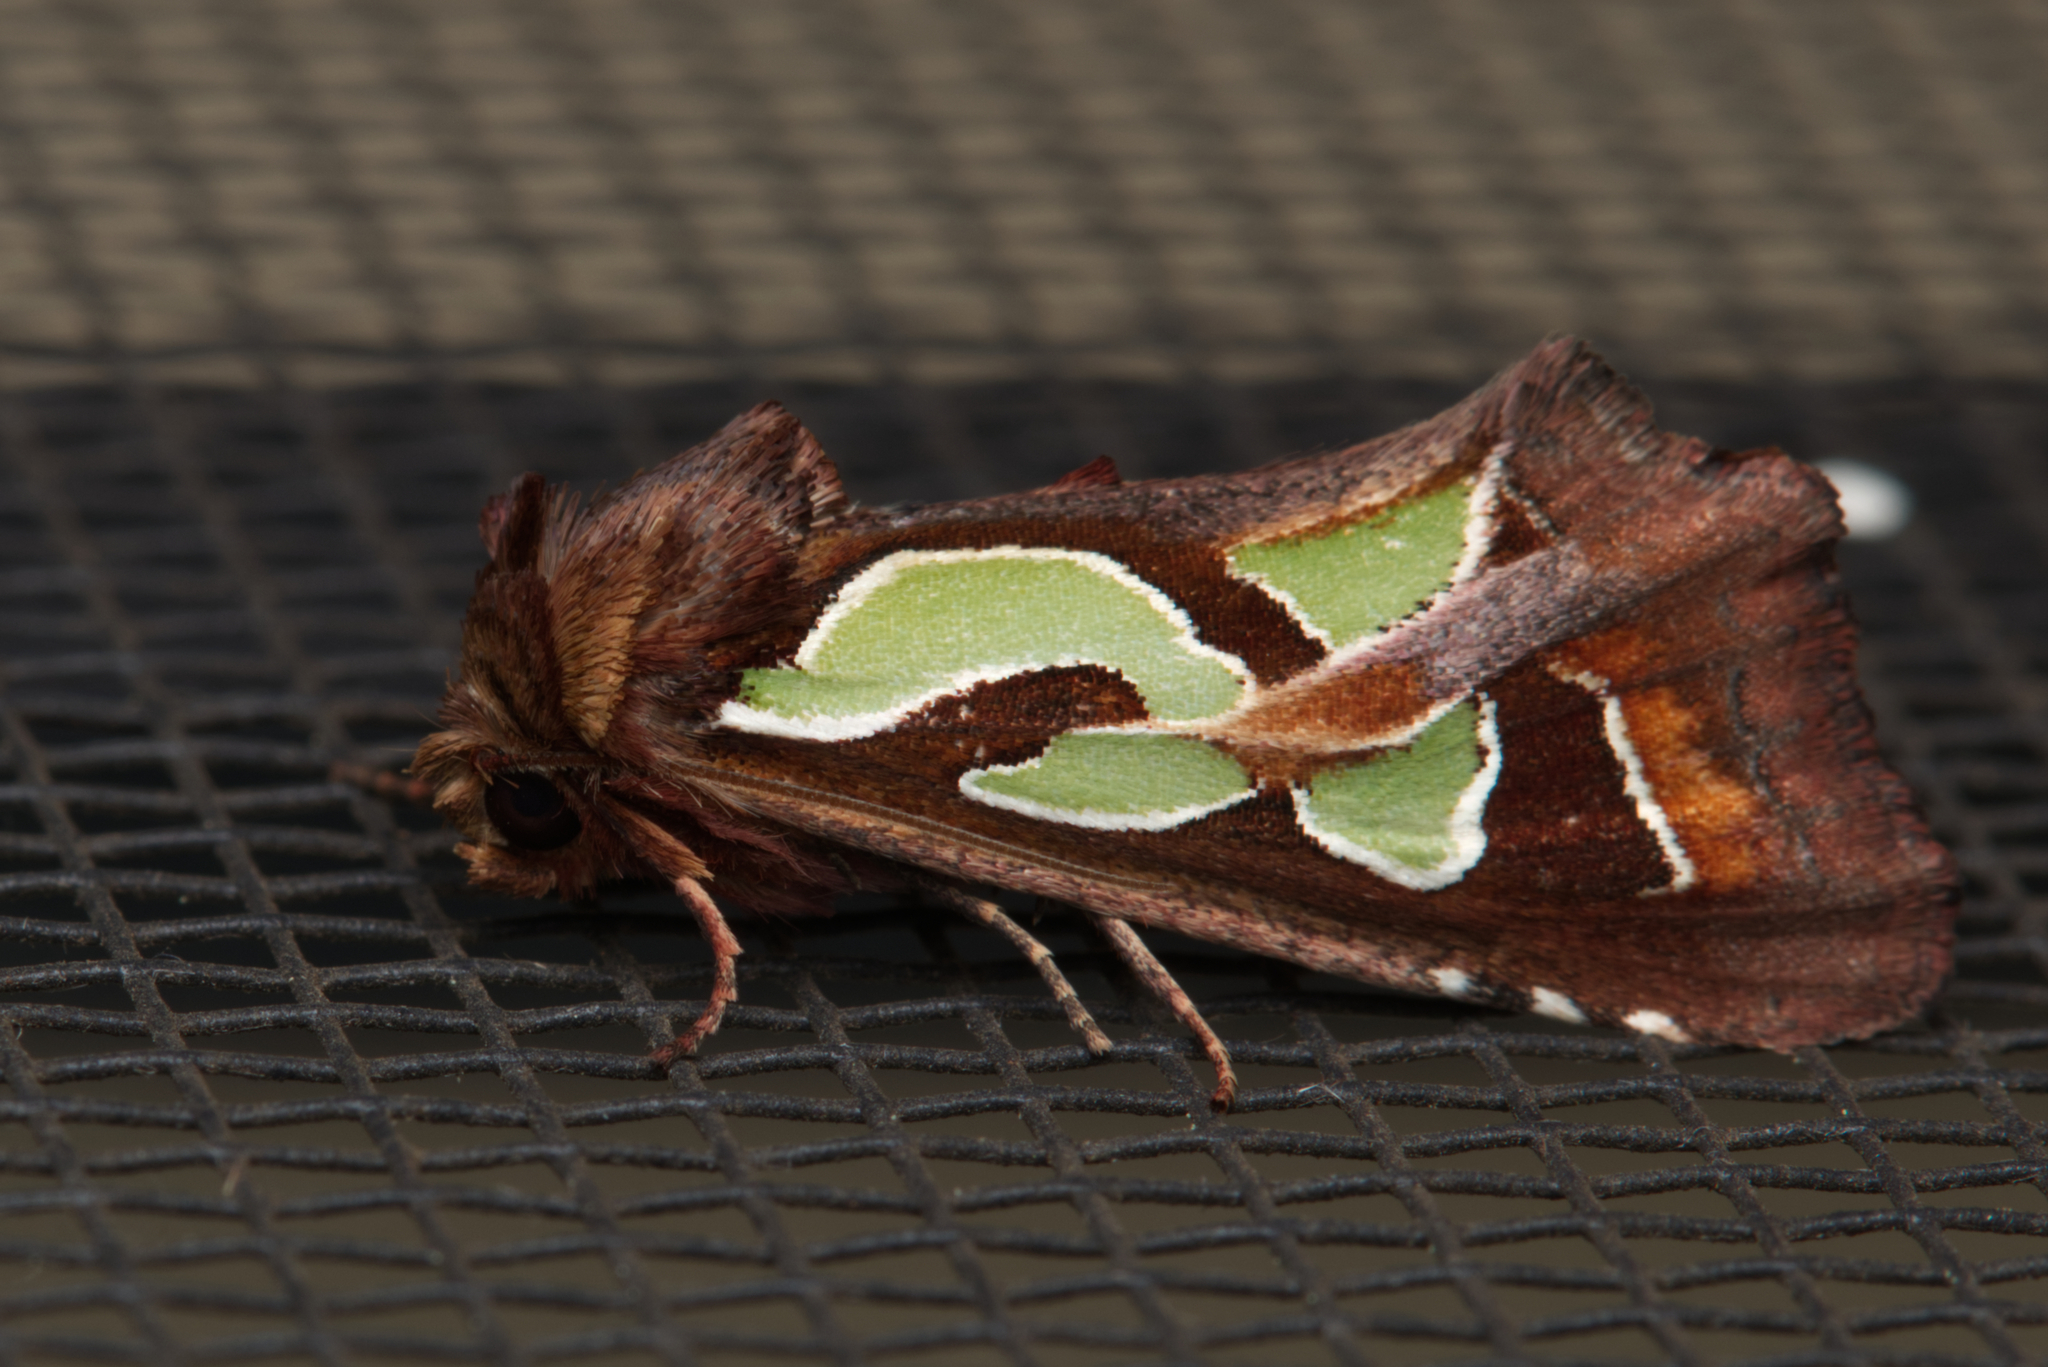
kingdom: Animalia
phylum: Arthropoda
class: Insecta
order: Lepidoptera
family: Noctuidae
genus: Cosmodes
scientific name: Cosmodes elegans
